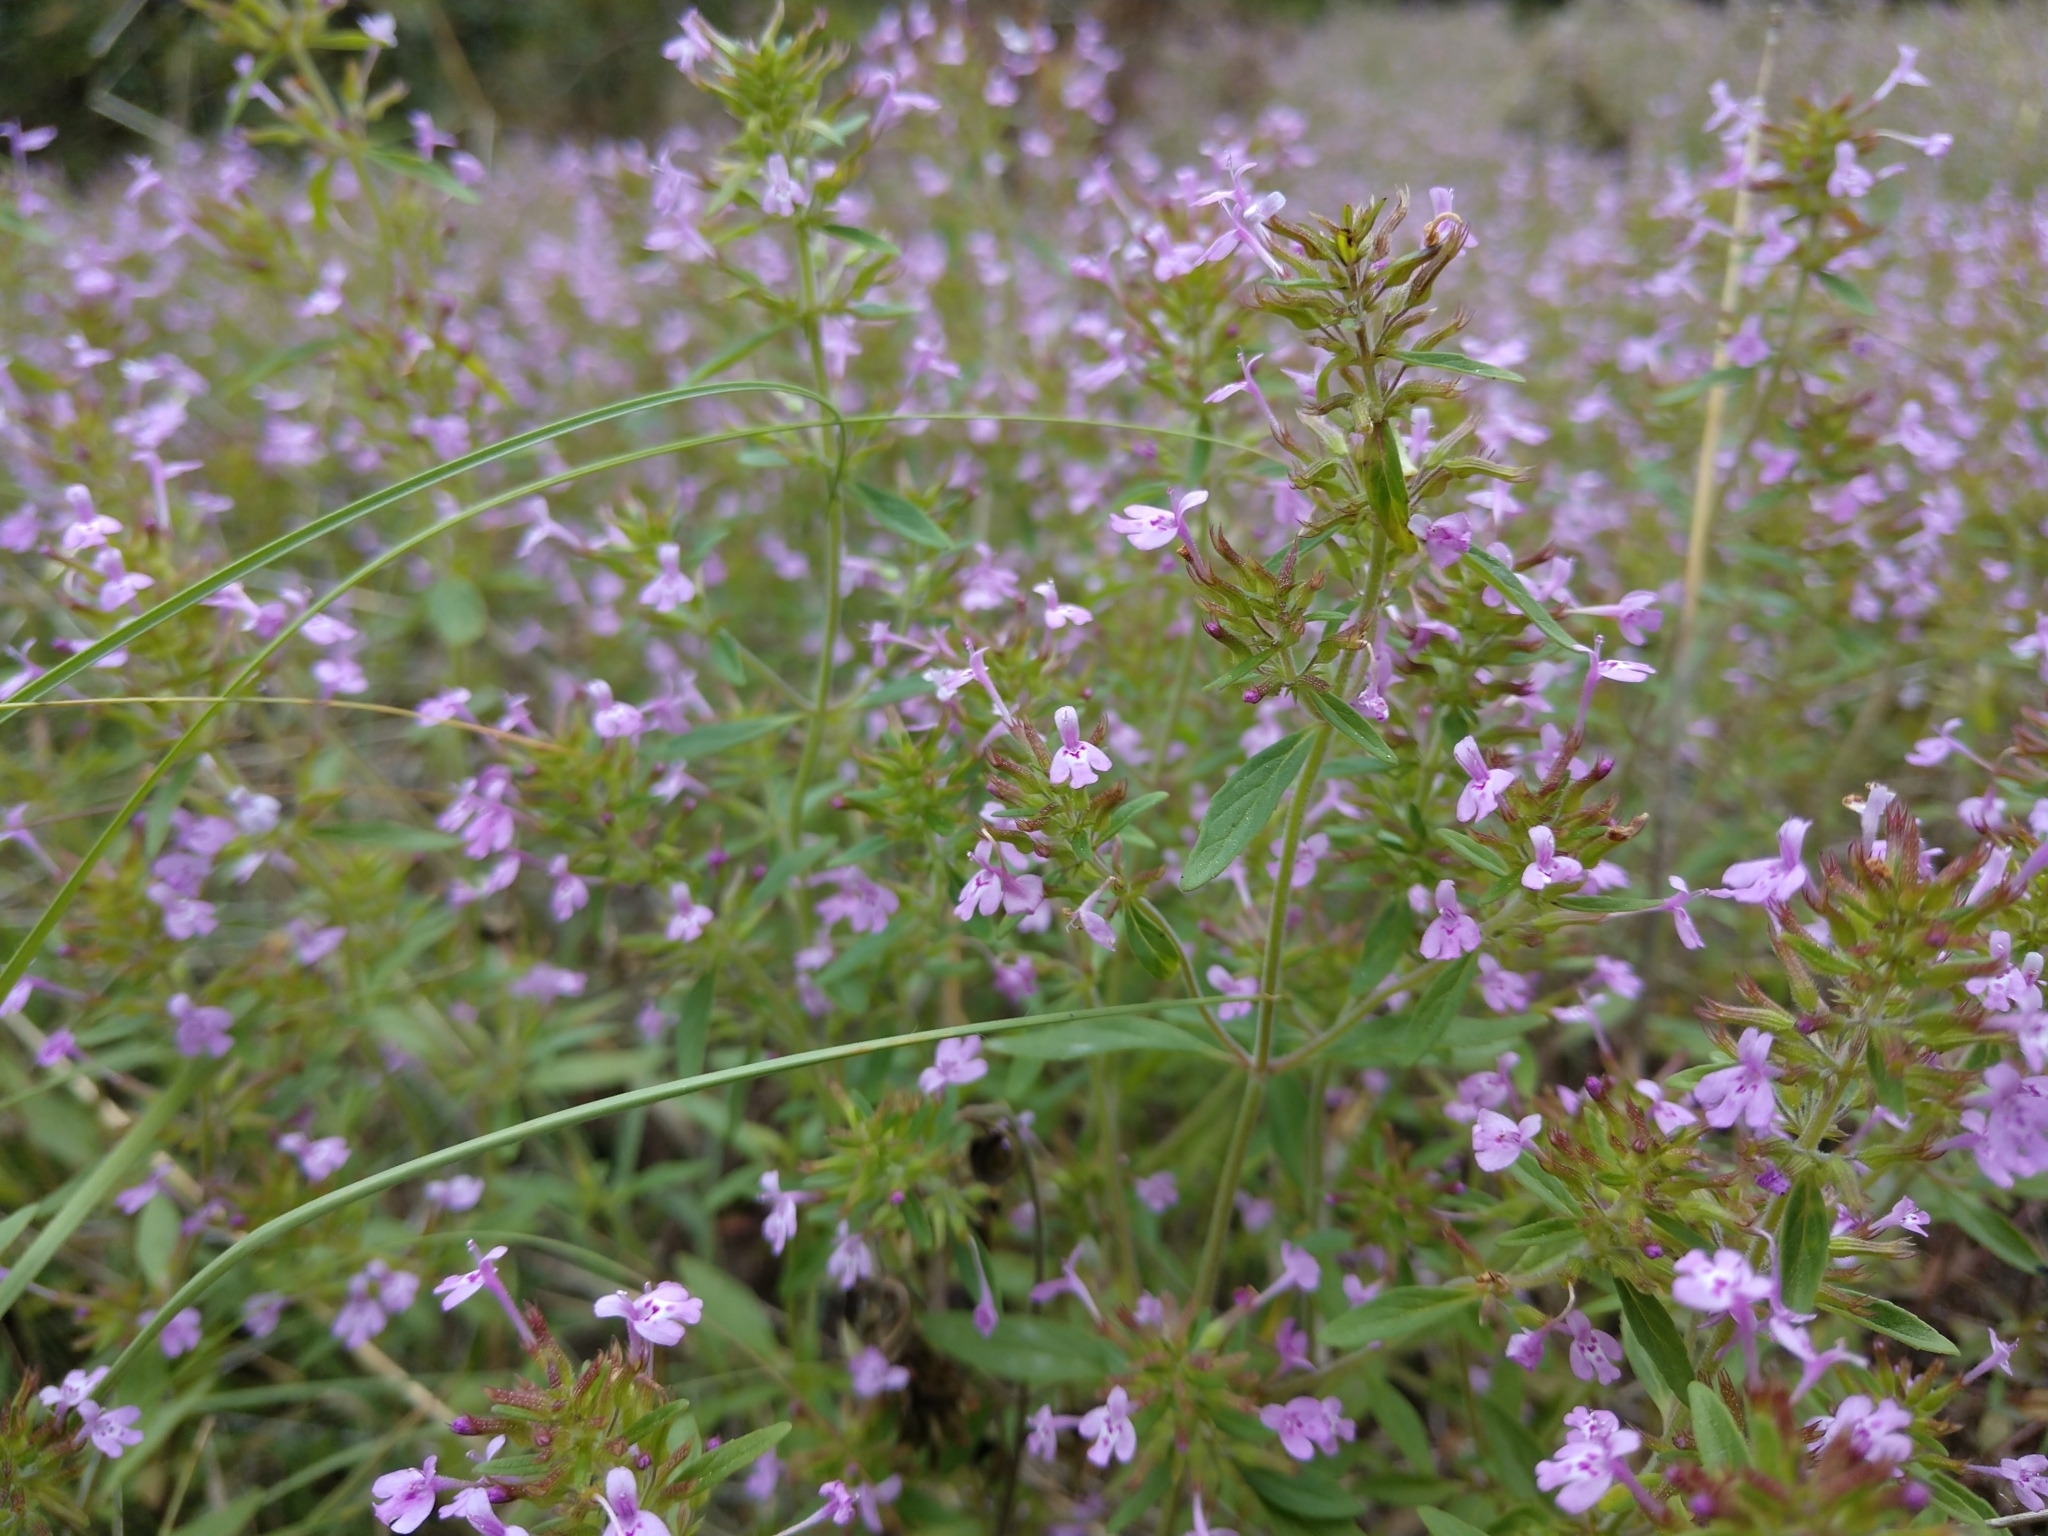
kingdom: Plantae
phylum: Tracheophyta
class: Magnoliopsida
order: Lamiales
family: Lamiaceae
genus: Hedeoma
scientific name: Hedeoma acinoides
